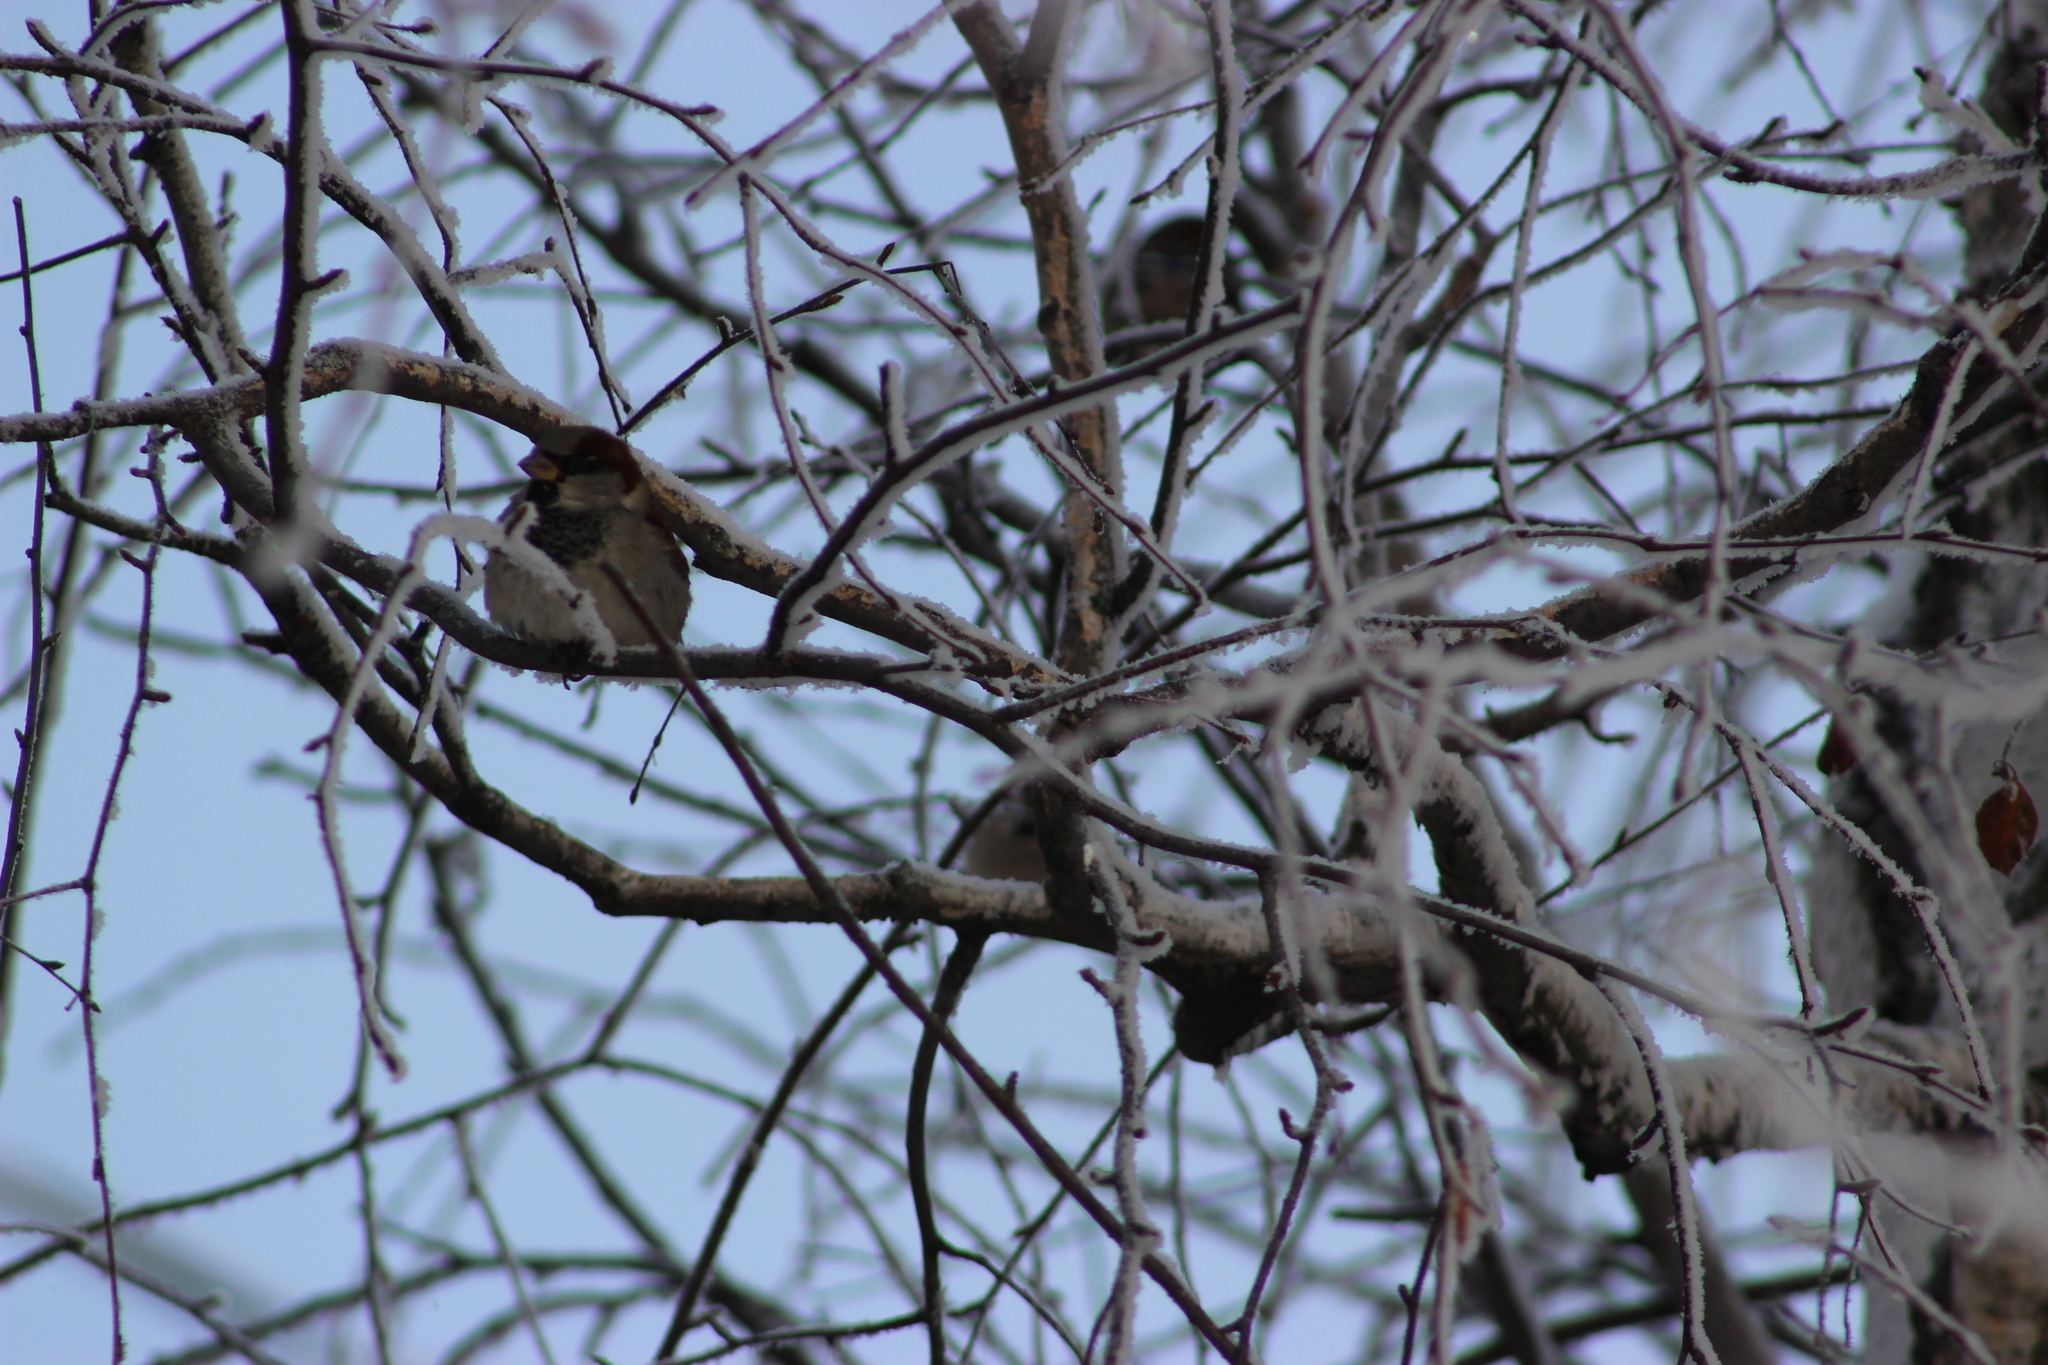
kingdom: Animalia
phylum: Chordata
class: Aves
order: Passeriformes
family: Passeridae
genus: Passer
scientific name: Passer domesticus
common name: House sparrow
